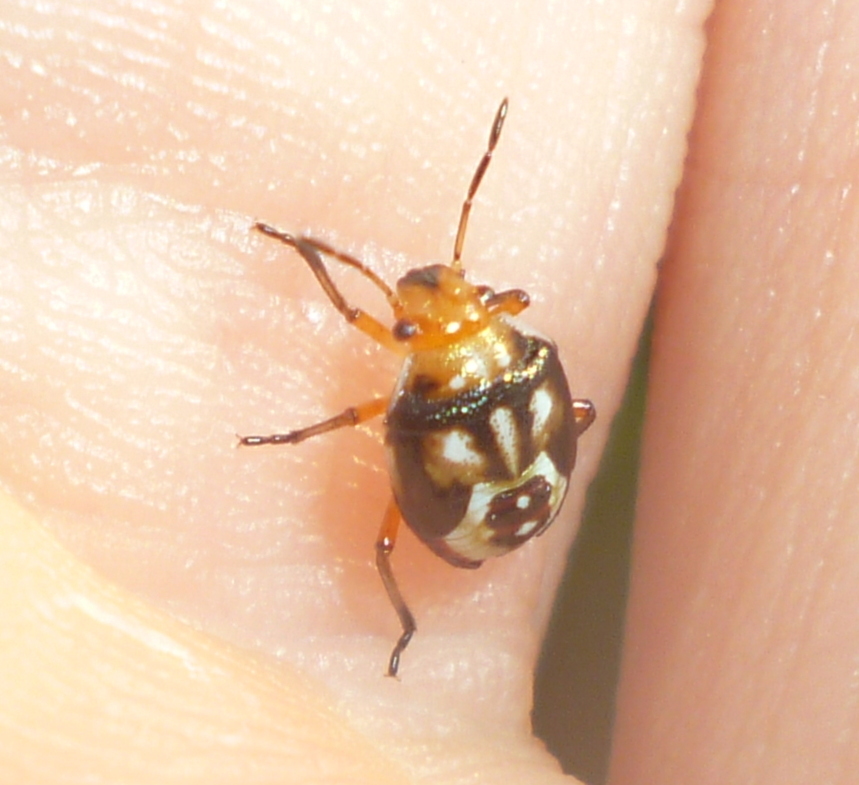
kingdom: Animalia
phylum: Arthropoda
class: Insecta
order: Hemiptera
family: Pentatomidae
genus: Mormidea
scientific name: Mormidea pama
